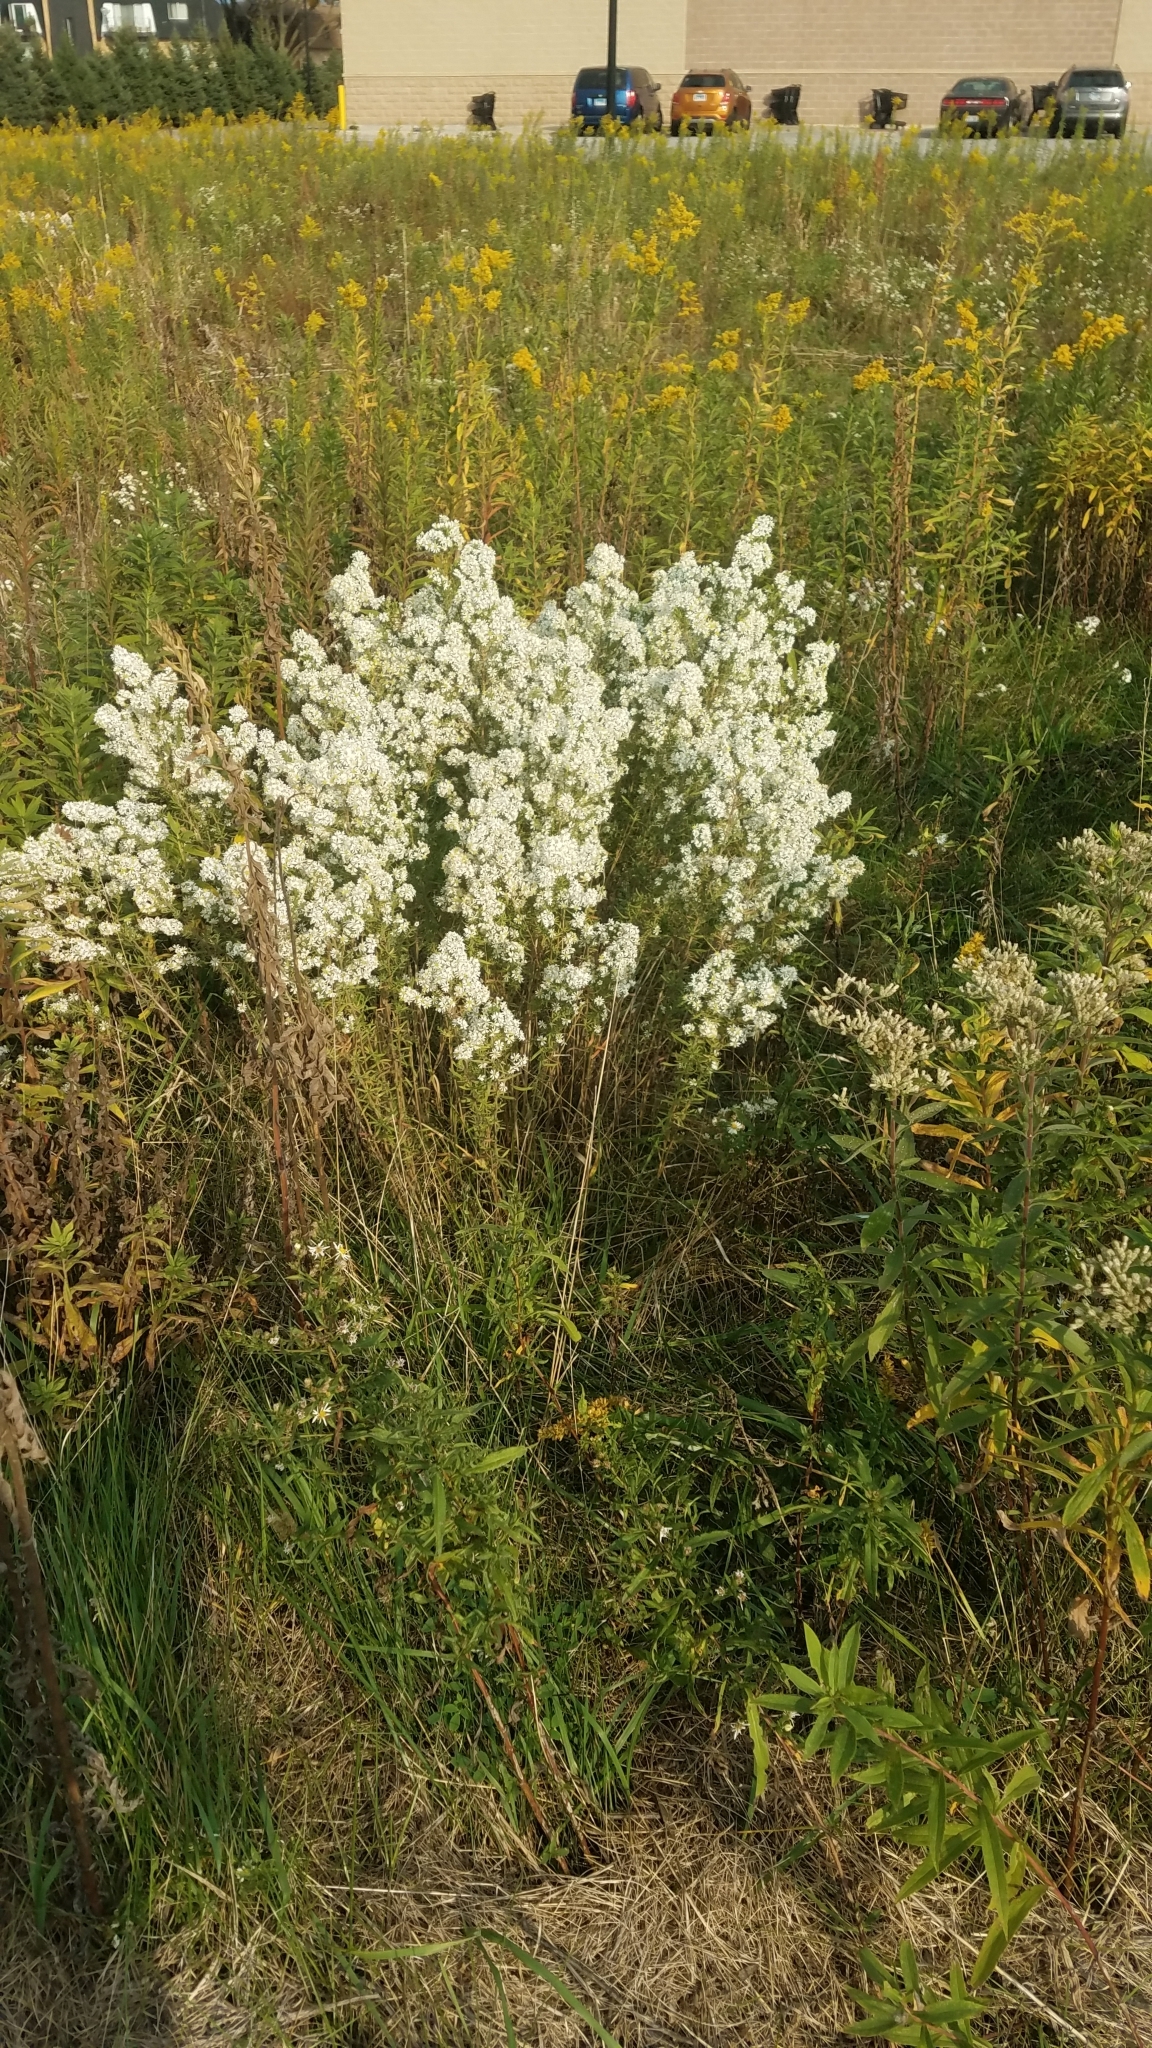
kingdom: Plantae
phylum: Tracheophyta
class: Magnoliopsida
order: Asterales
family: Asteraceae
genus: Symphyotrichum
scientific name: Symphyotrichum ericoides
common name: Heath aster
